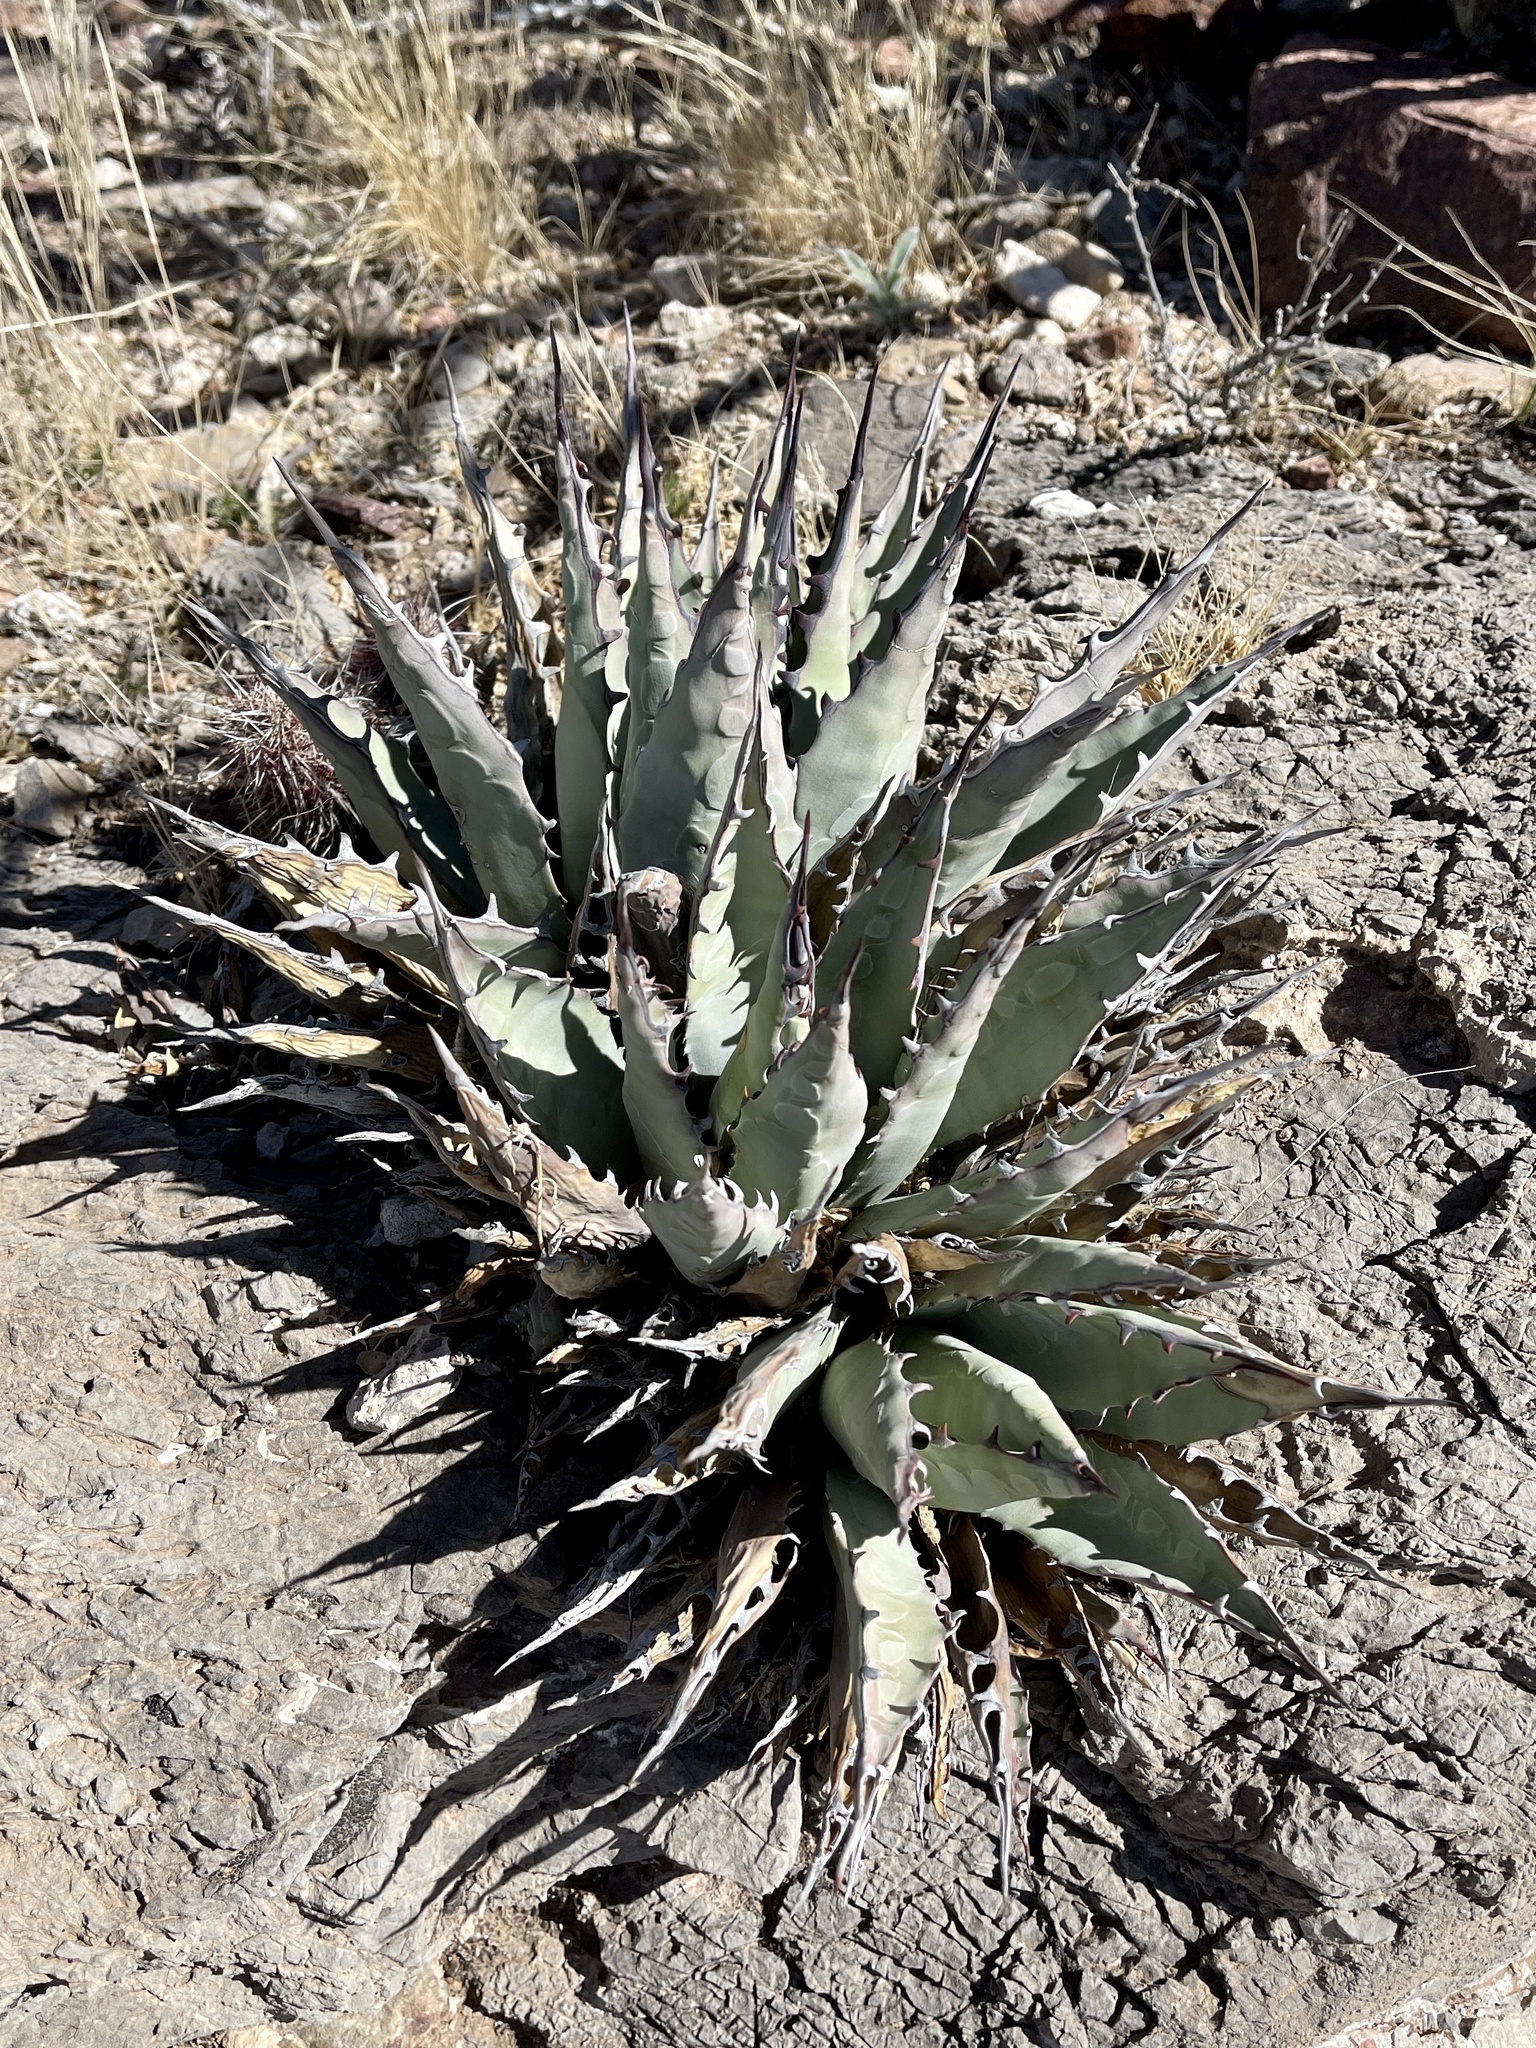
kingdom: Plantae
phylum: Tracheophyta
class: Liliopsida
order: Asparagales
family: Asparagaceae
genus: Agave
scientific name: Agave parryi
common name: Parry's agave
